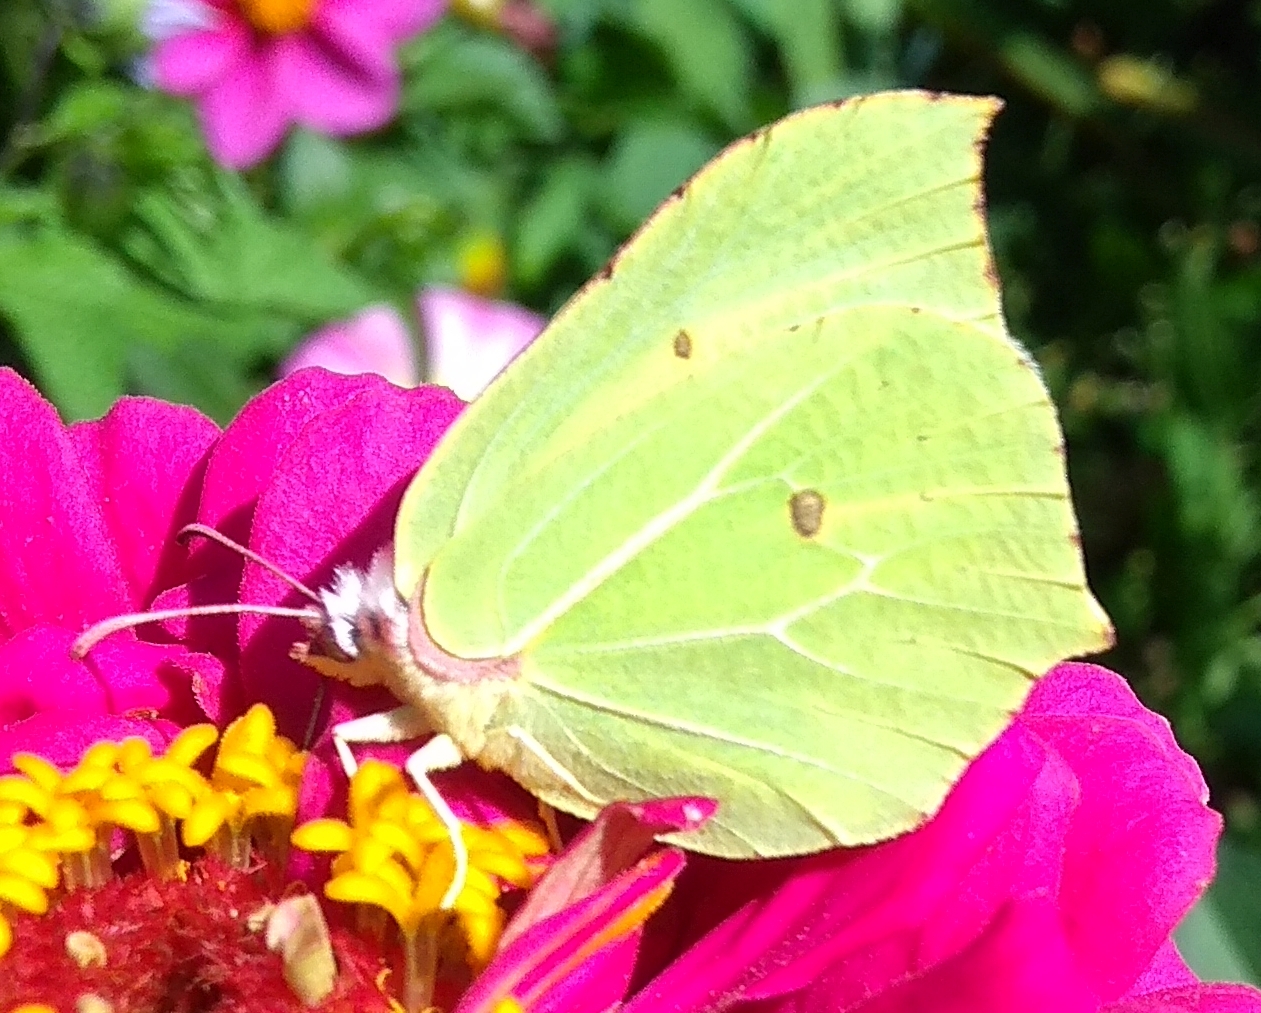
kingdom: Animalia
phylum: Arthropoda
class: Insecta
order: Lepidoptera
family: Pieridae
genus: Gonepteryx
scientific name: Gonepteryx rhamni
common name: Brimstone
